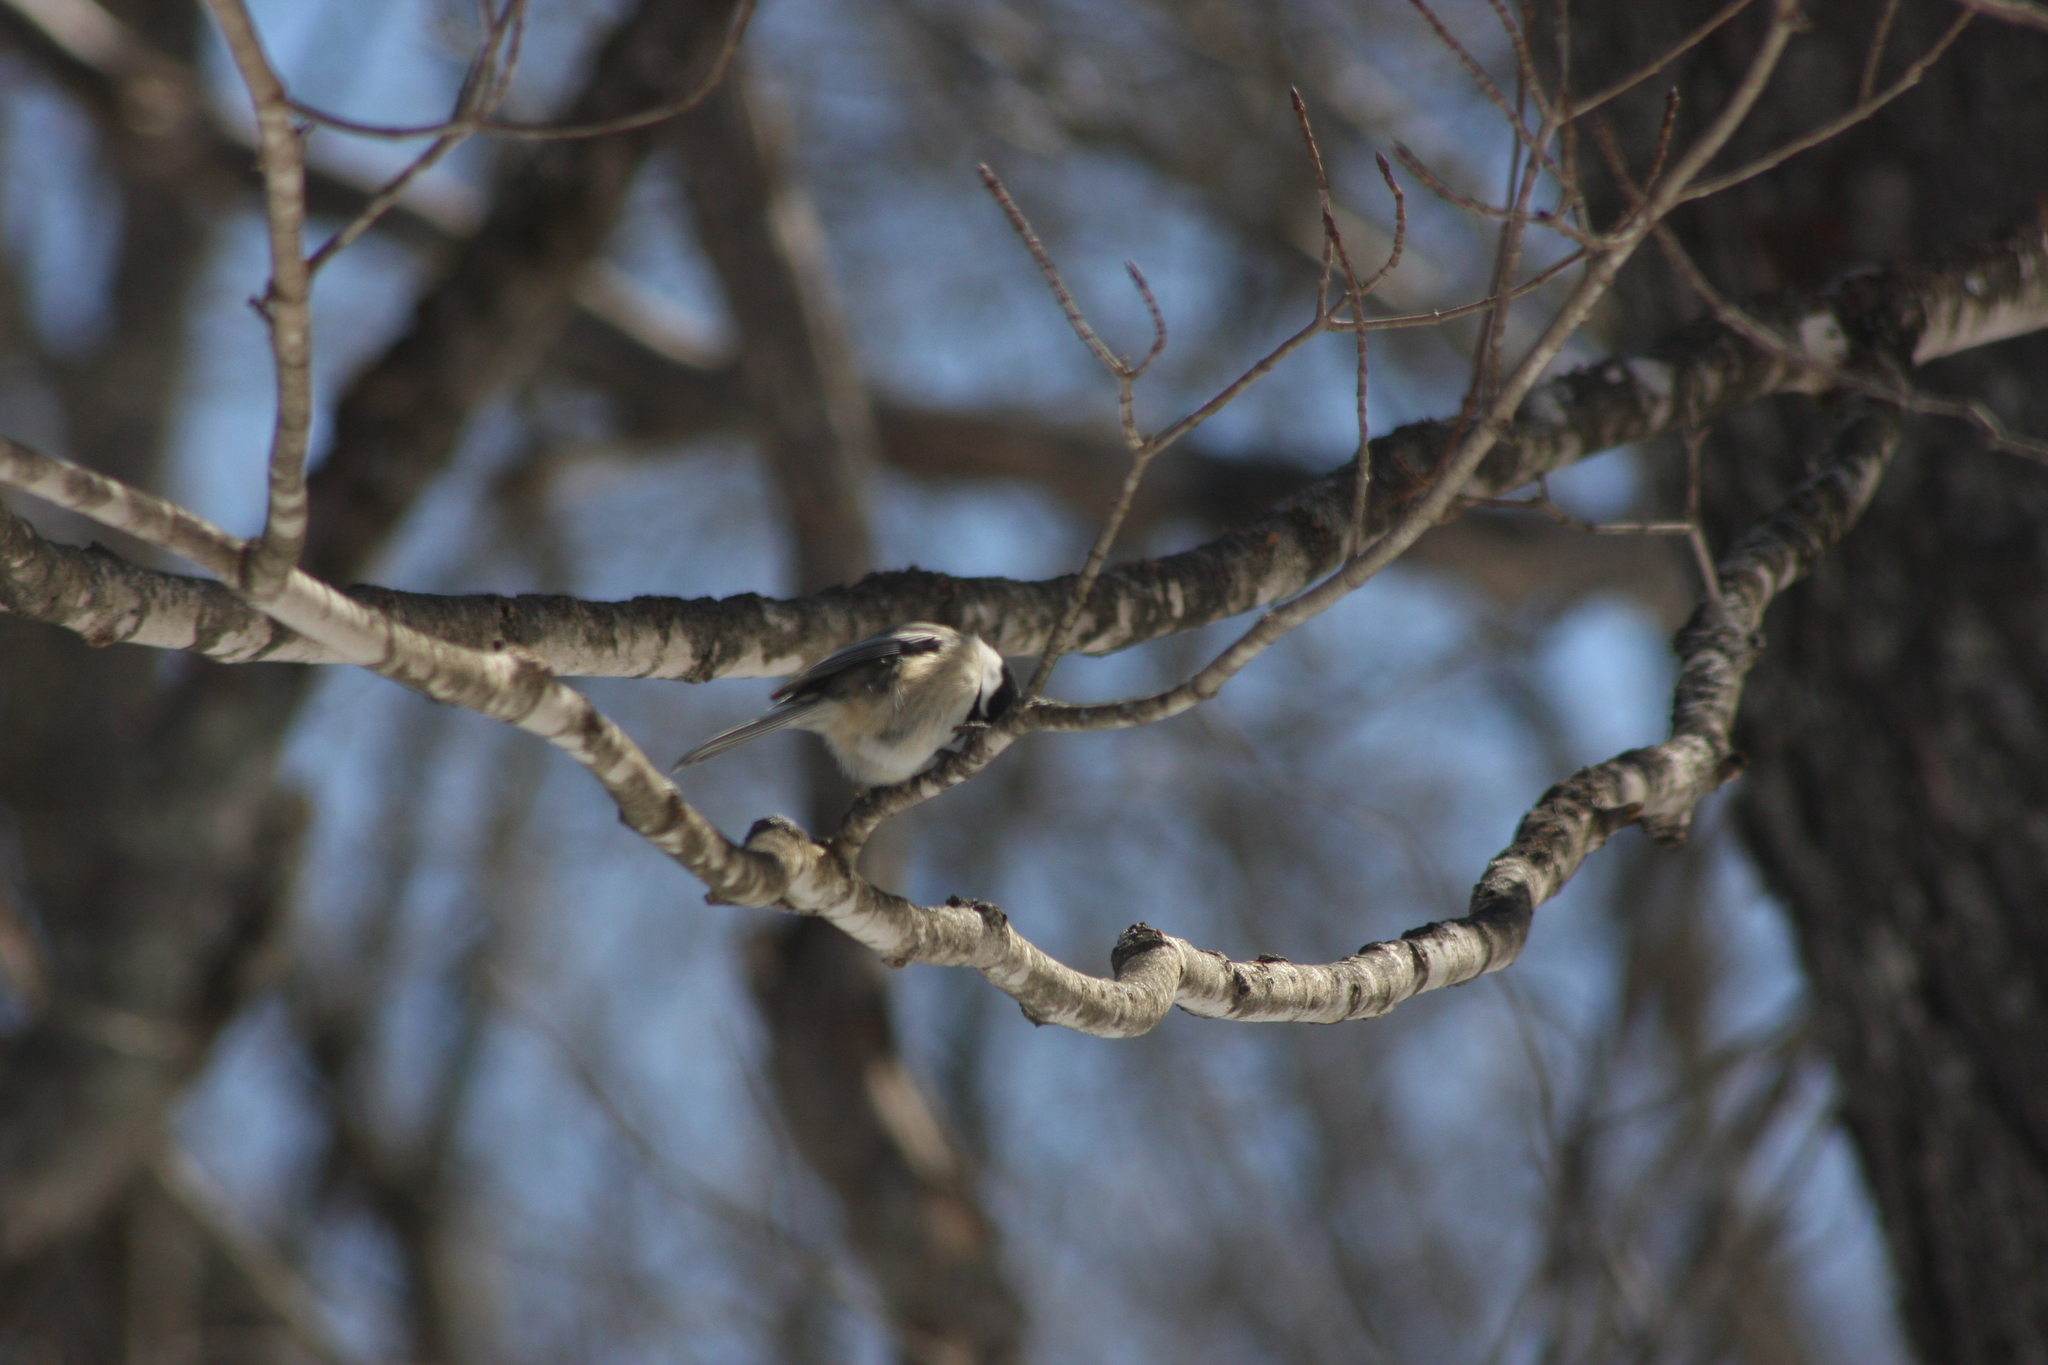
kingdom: Animalia
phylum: Chordata
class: Aves
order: Passeriformes
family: Paridae
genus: Poecile
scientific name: Poecile atricapillus
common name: Black-capped chickadee
